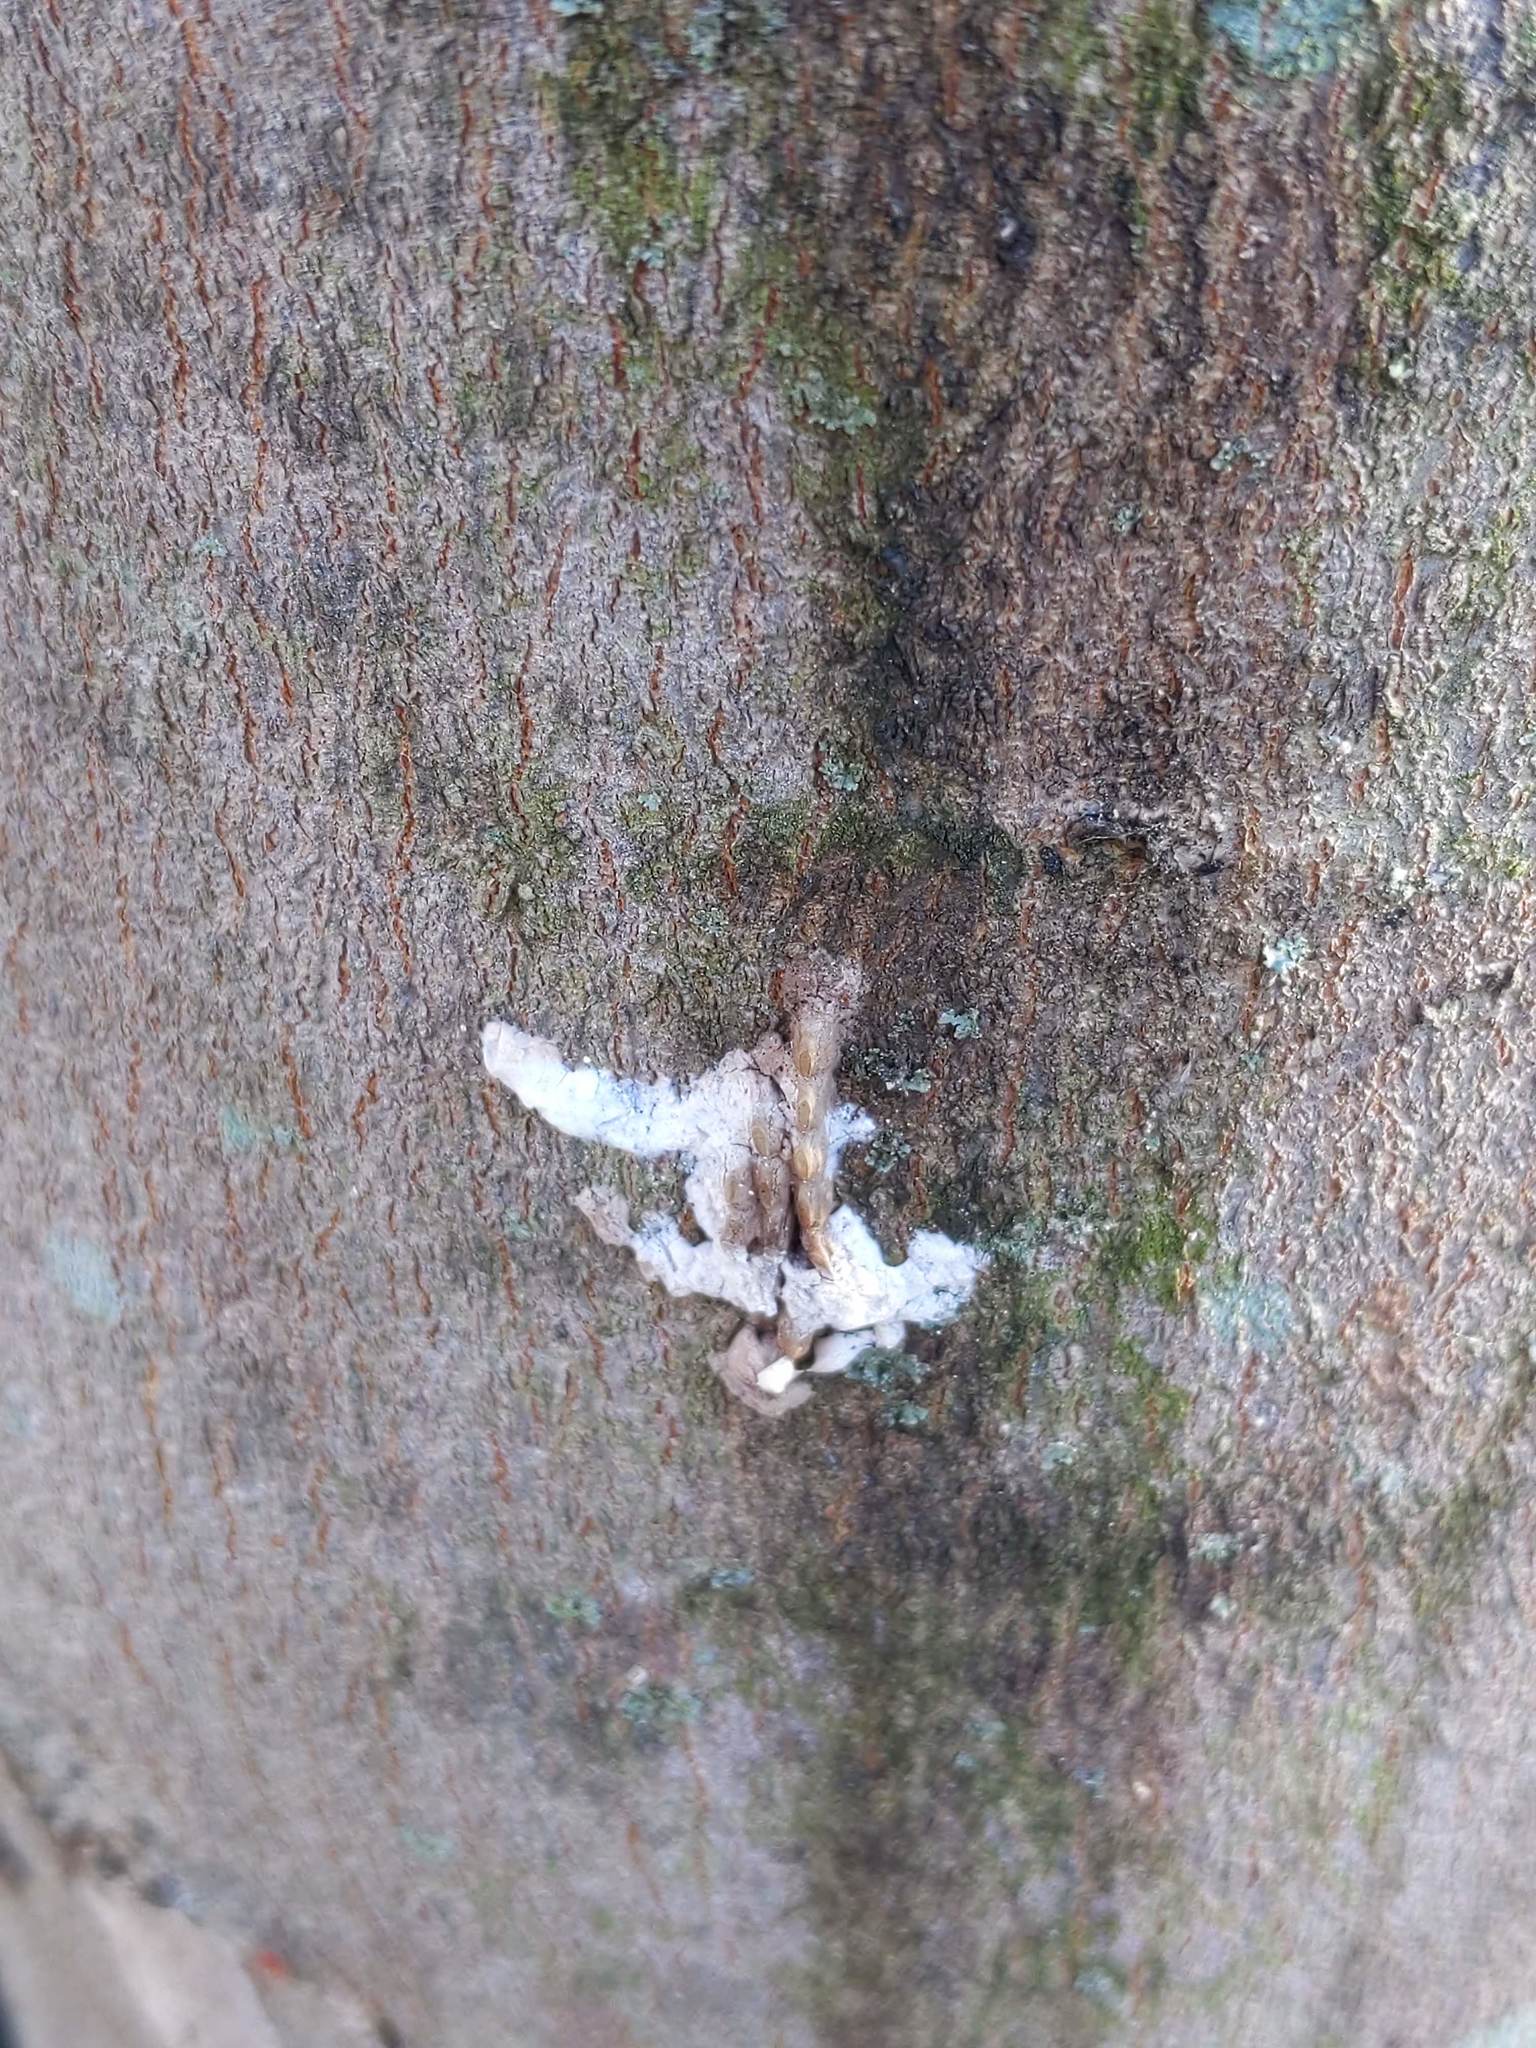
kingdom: Animalia
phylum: Arthropoda
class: Insecta
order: Hemiptera
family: Fulgoridae
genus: Lycorma
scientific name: Lycorma delicatula
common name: Spotted lanternfly
